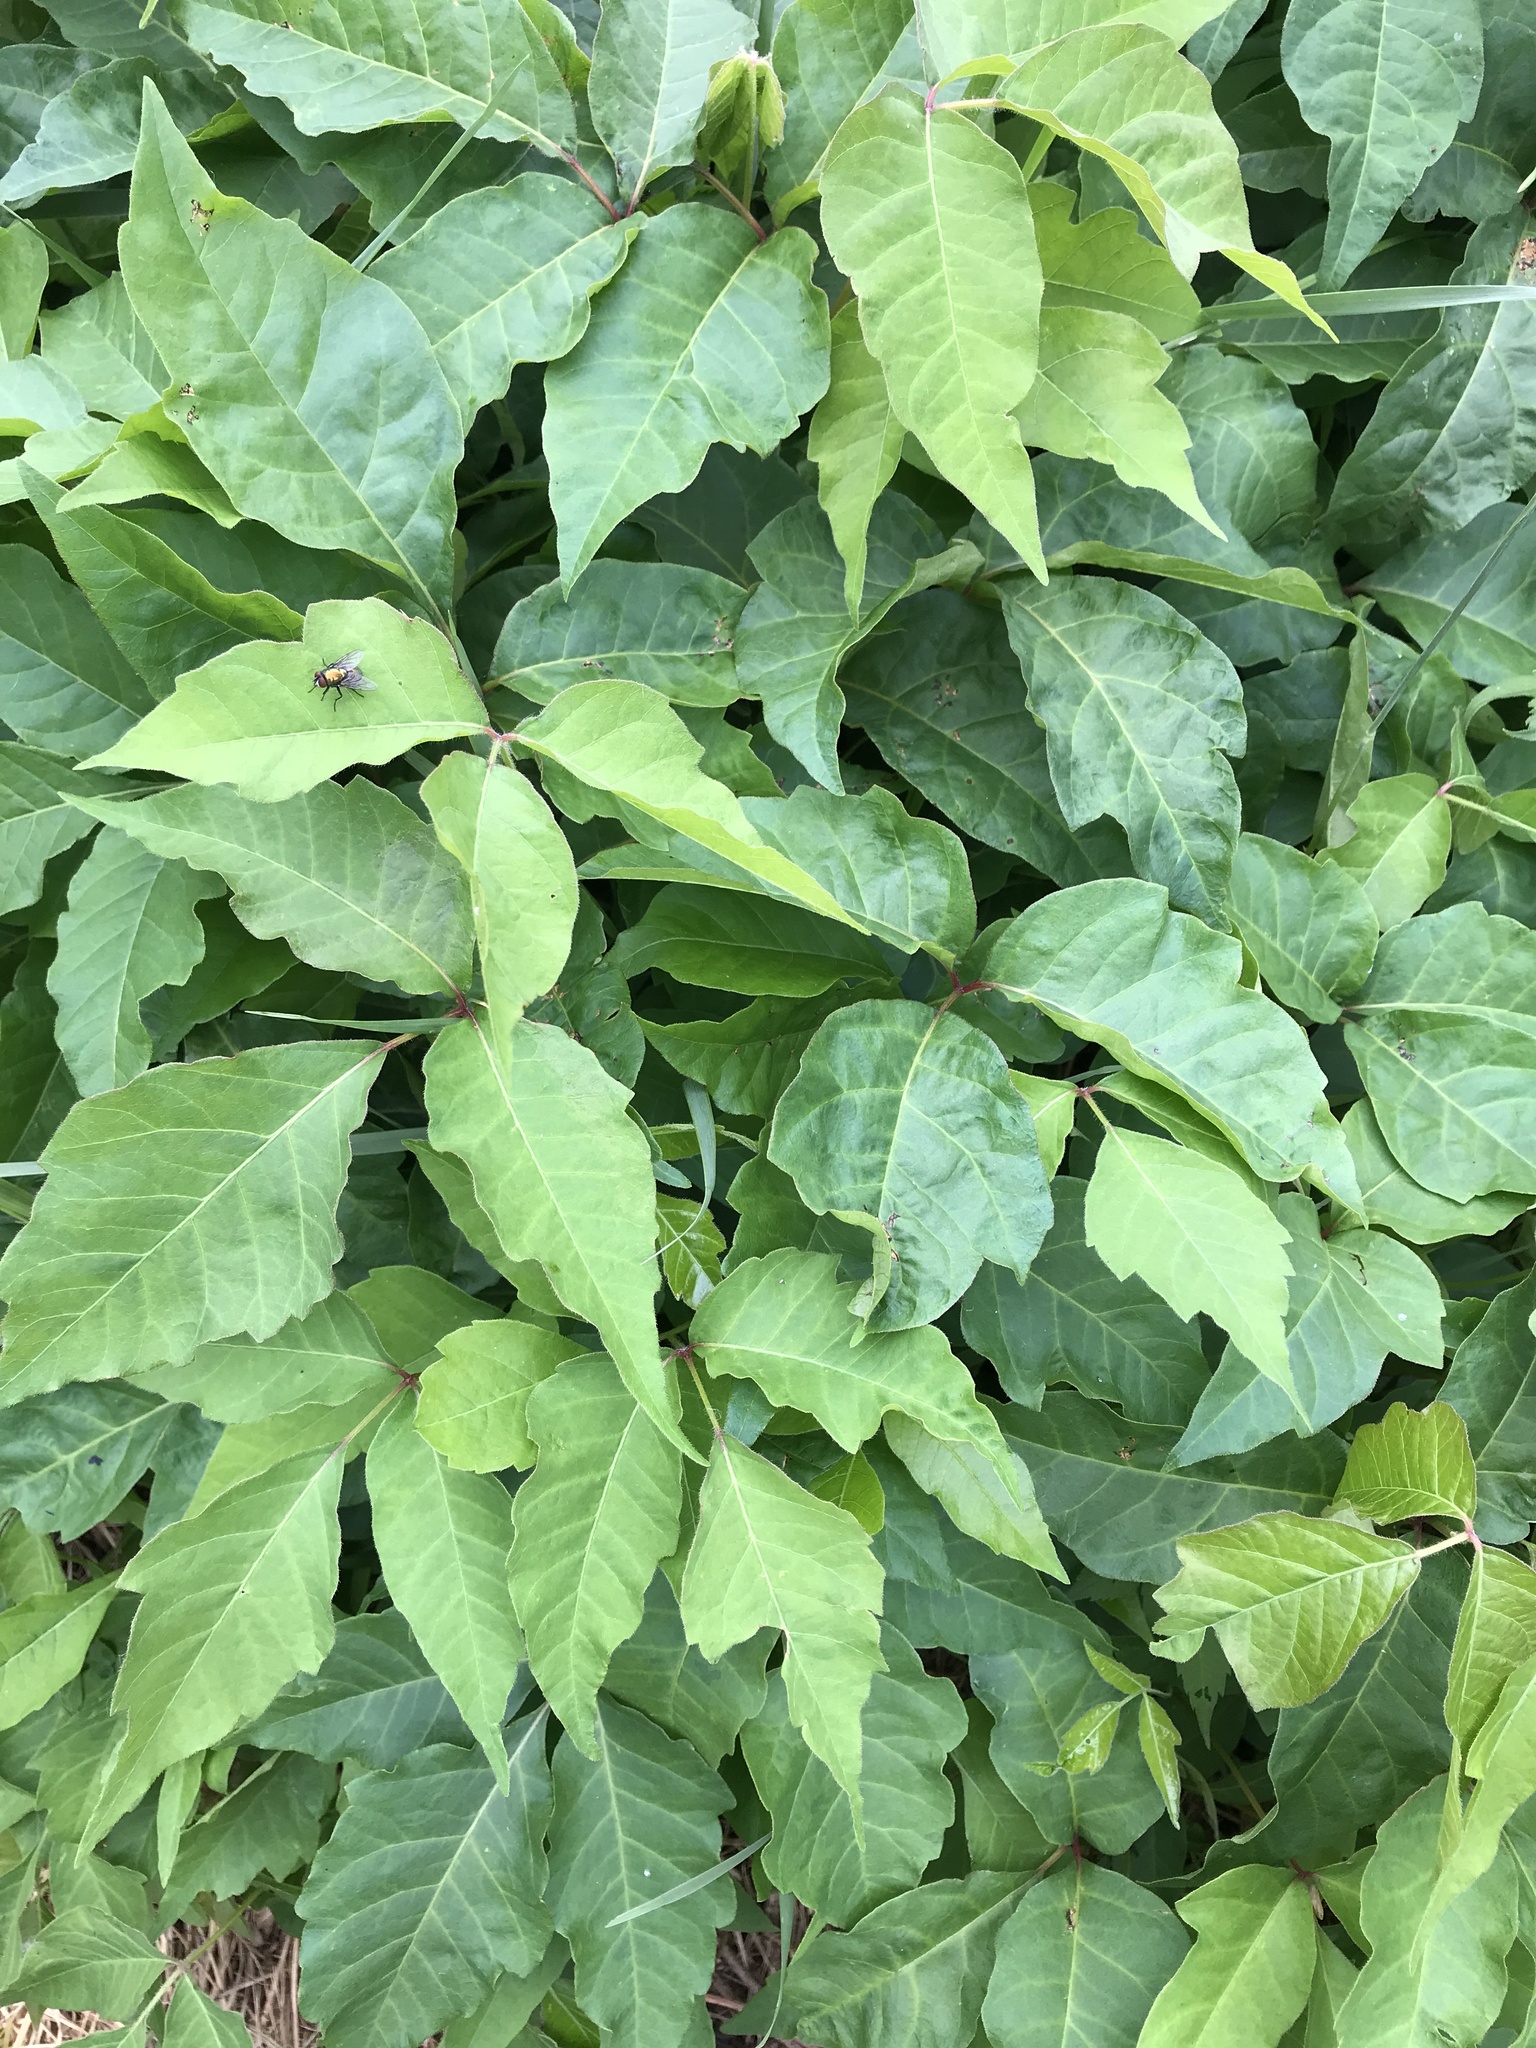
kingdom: Plantae
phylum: Tracheophyta
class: Magnoliopsida
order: Sapindales
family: Anacardiaceae
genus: Toxicodendron
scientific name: Toxicodendron radicans
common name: Poison ivy
